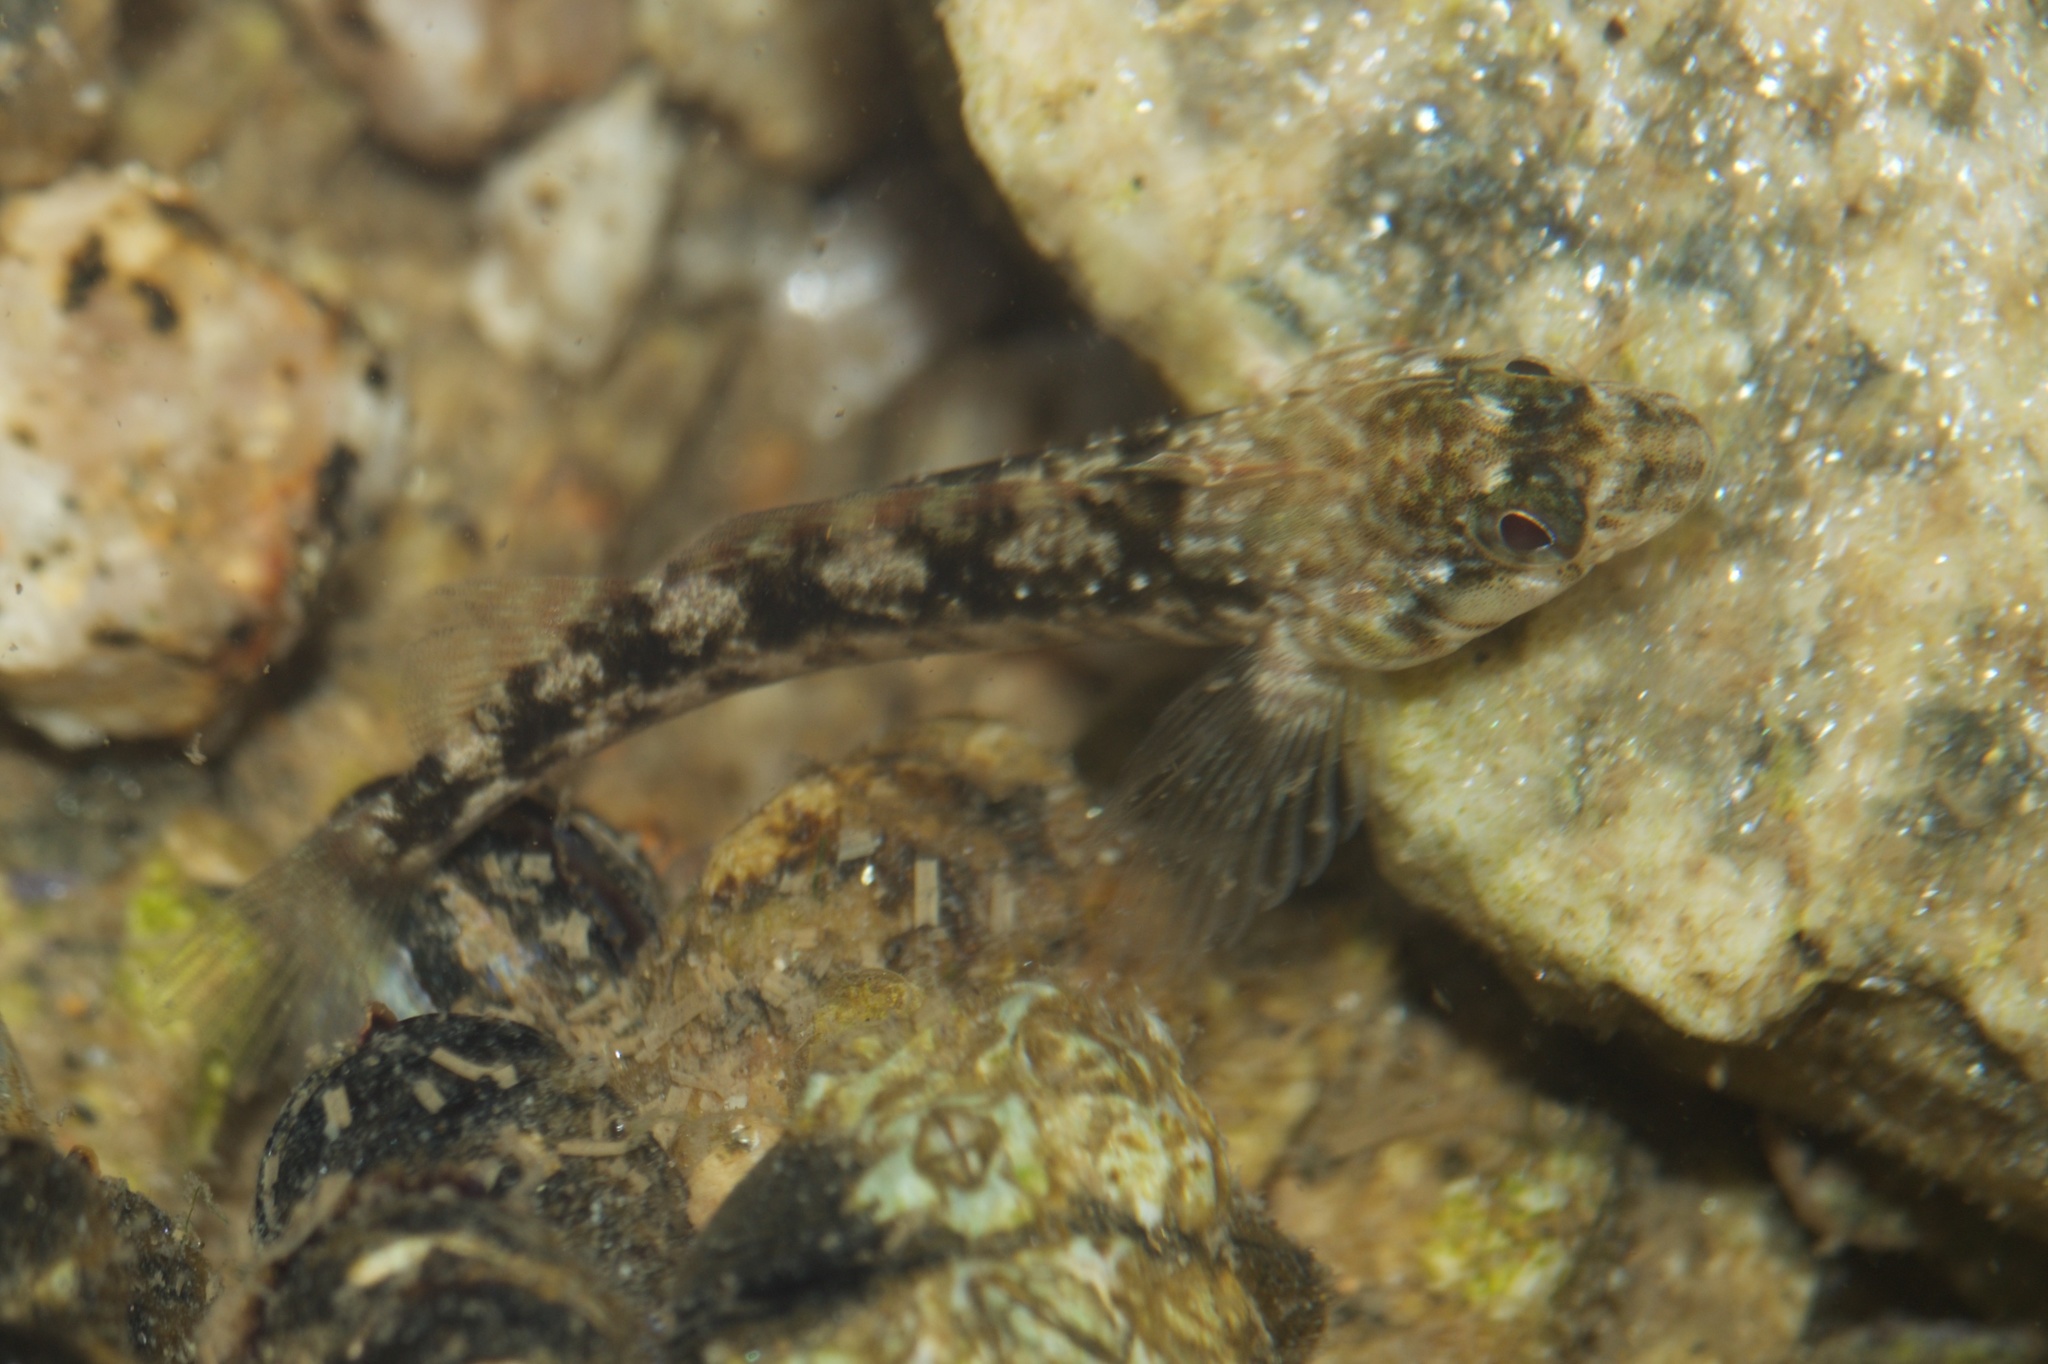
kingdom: Animalia
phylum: Chordata
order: Perciformes
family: Tripterygiidae
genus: Forsterygion
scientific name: Forsterygion gymnotum
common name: Multifid-tentacled robust triplefin
